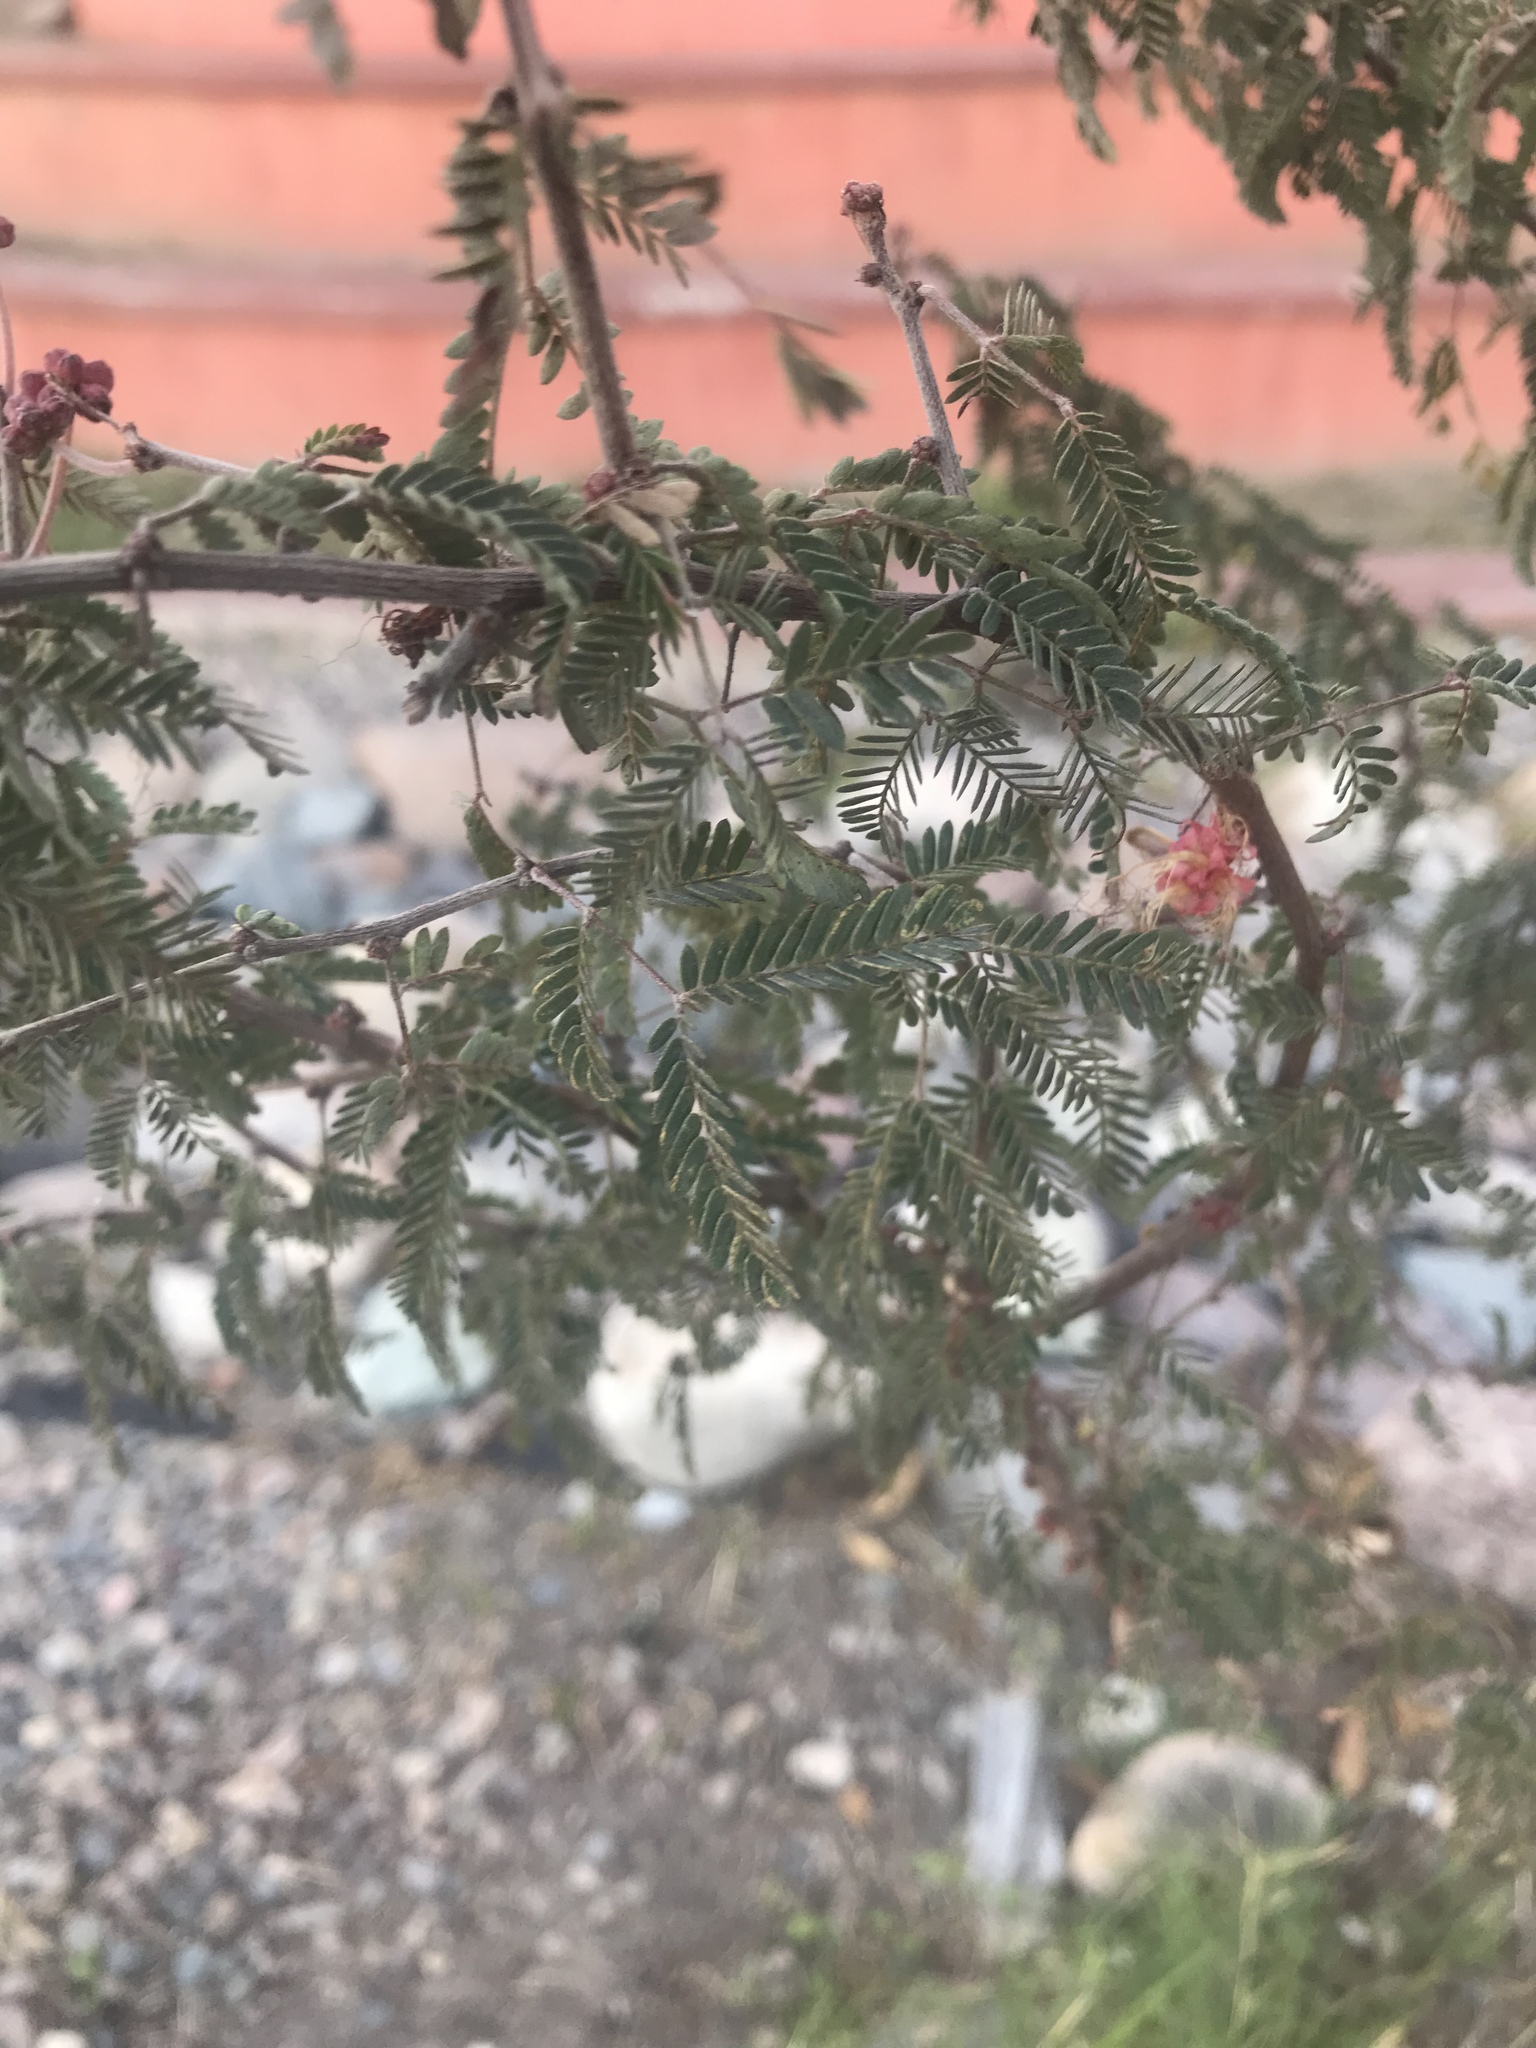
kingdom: Plantae
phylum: Tracheophyta
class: Magnoliopsida
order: Fabales
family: Fabaceae
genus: Calliandra
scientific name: Calliandra eriophylla
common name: Fairy-duster
